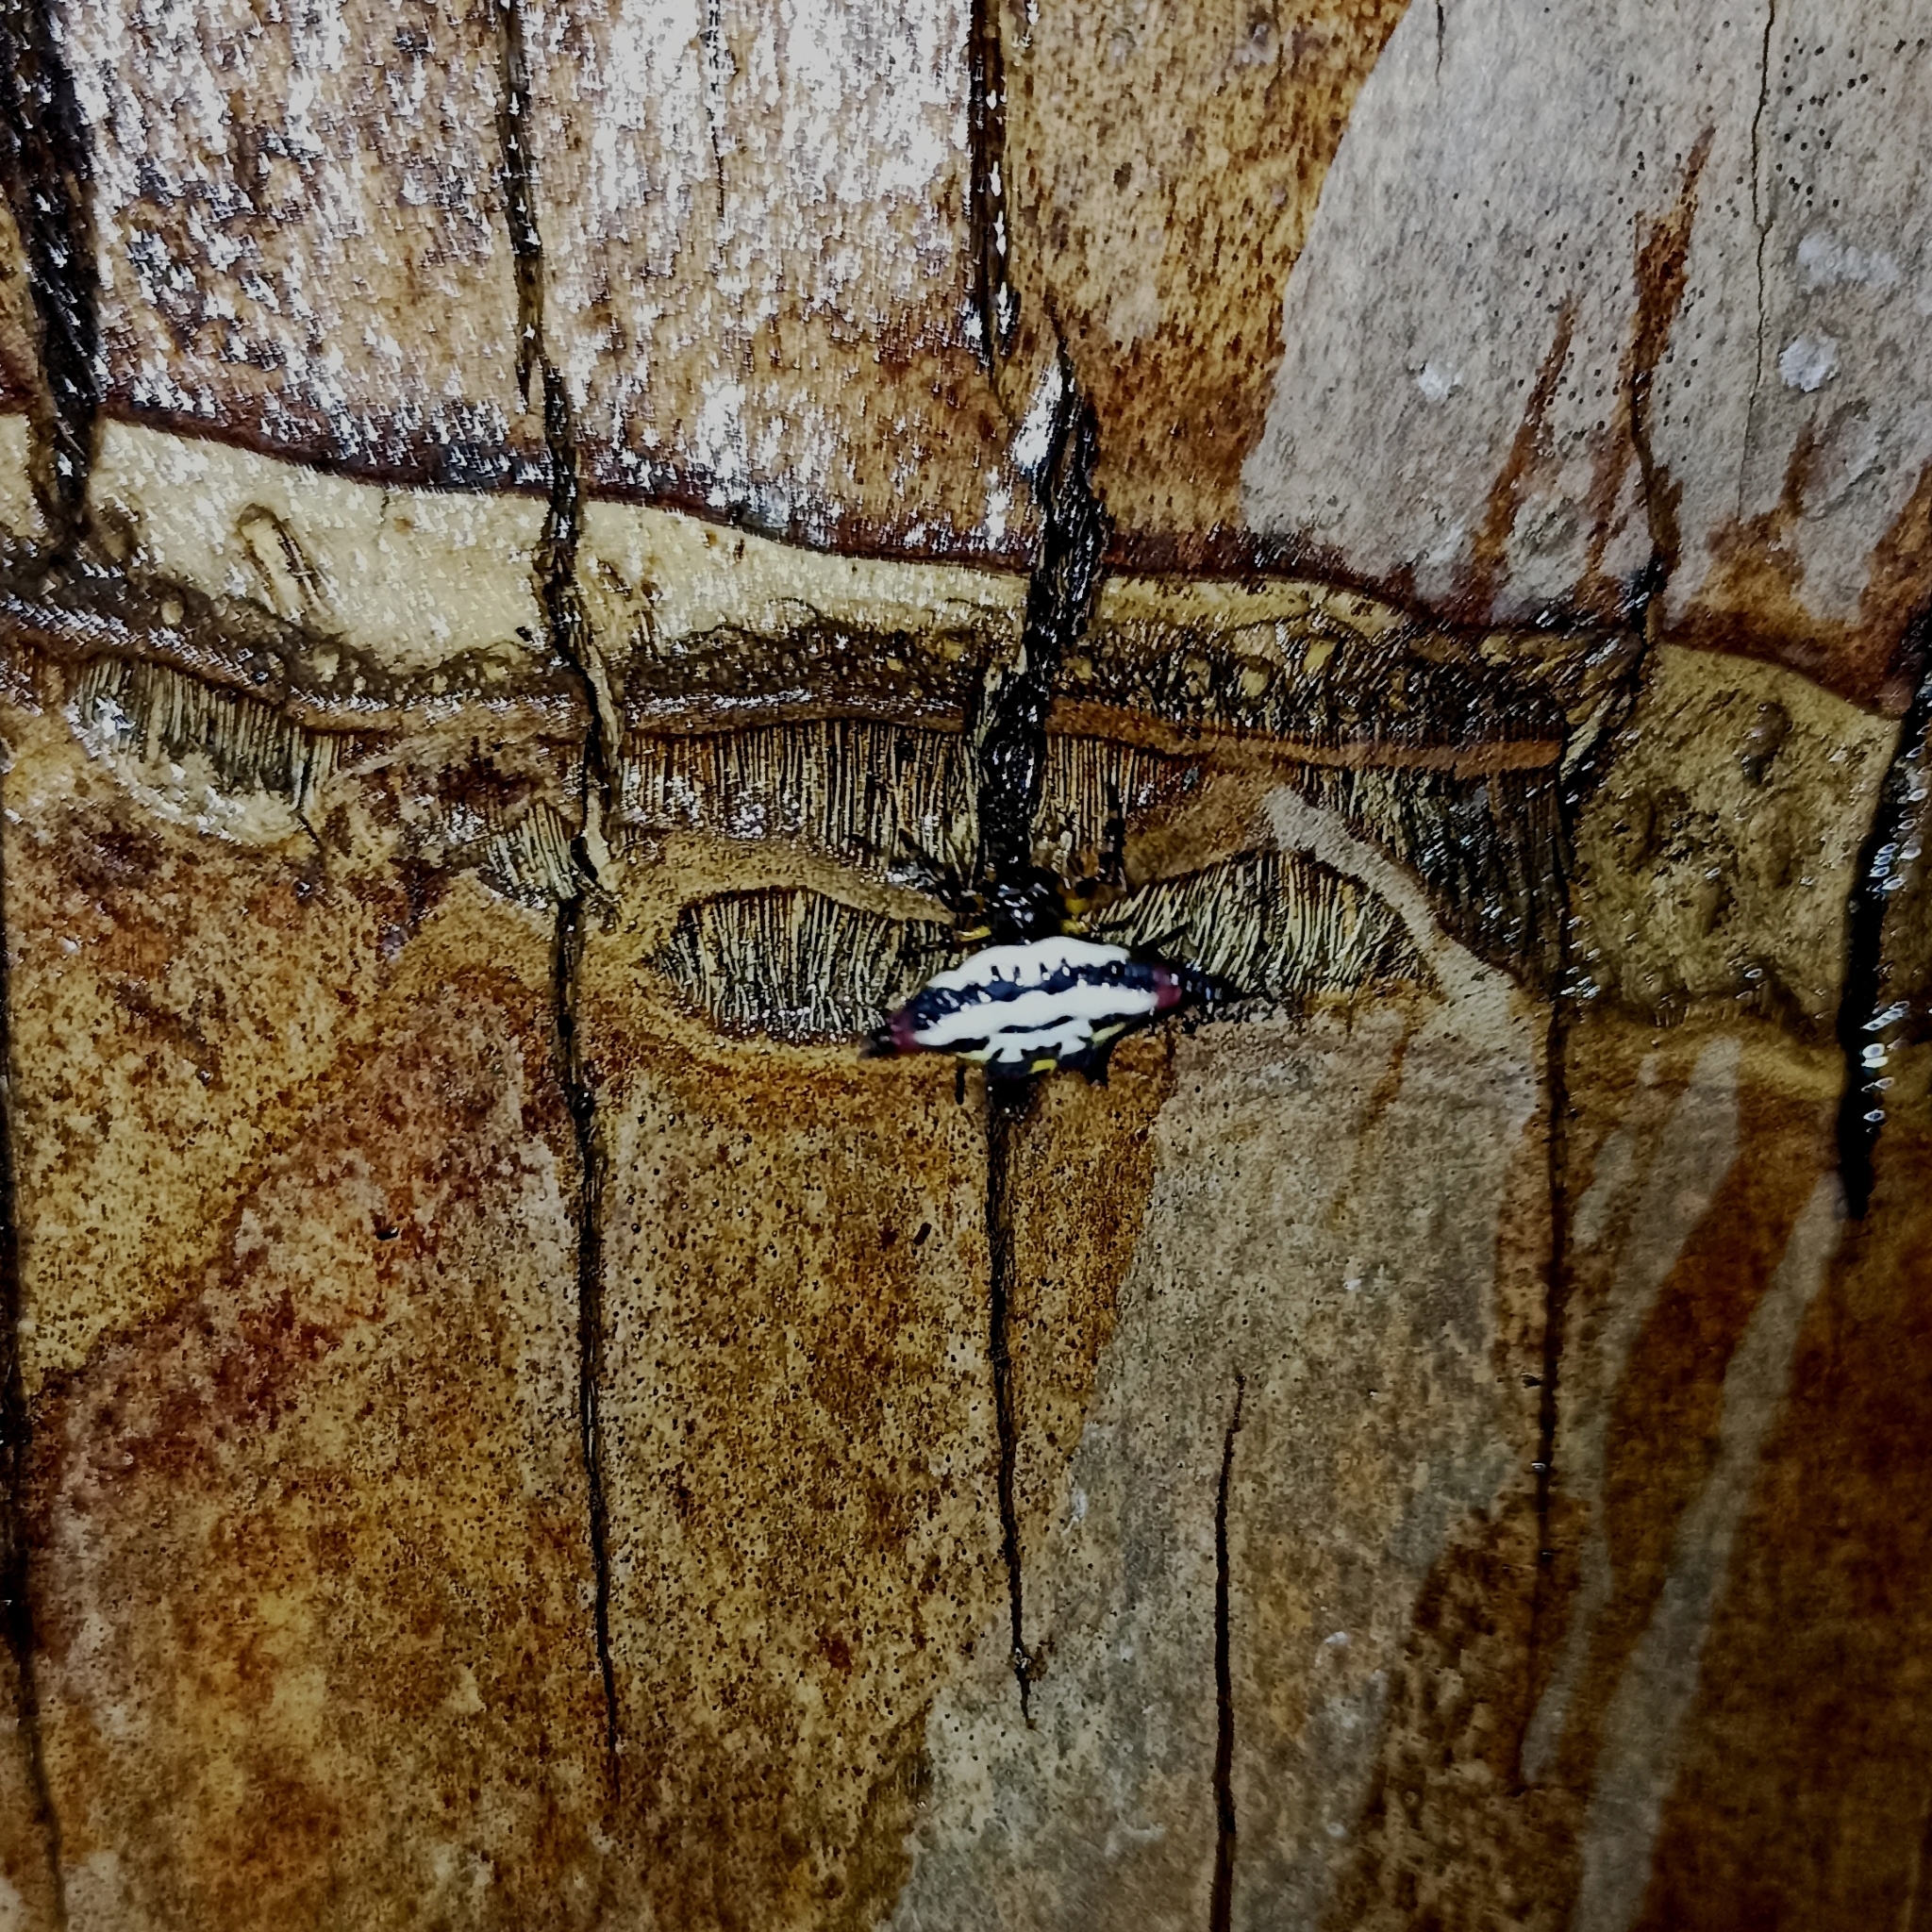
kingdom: Animalia
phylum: Arthropoda
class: Arachnida
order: Araneae
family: Araneidae
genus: Gasteracantha
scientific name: Gasteracantha geminata
